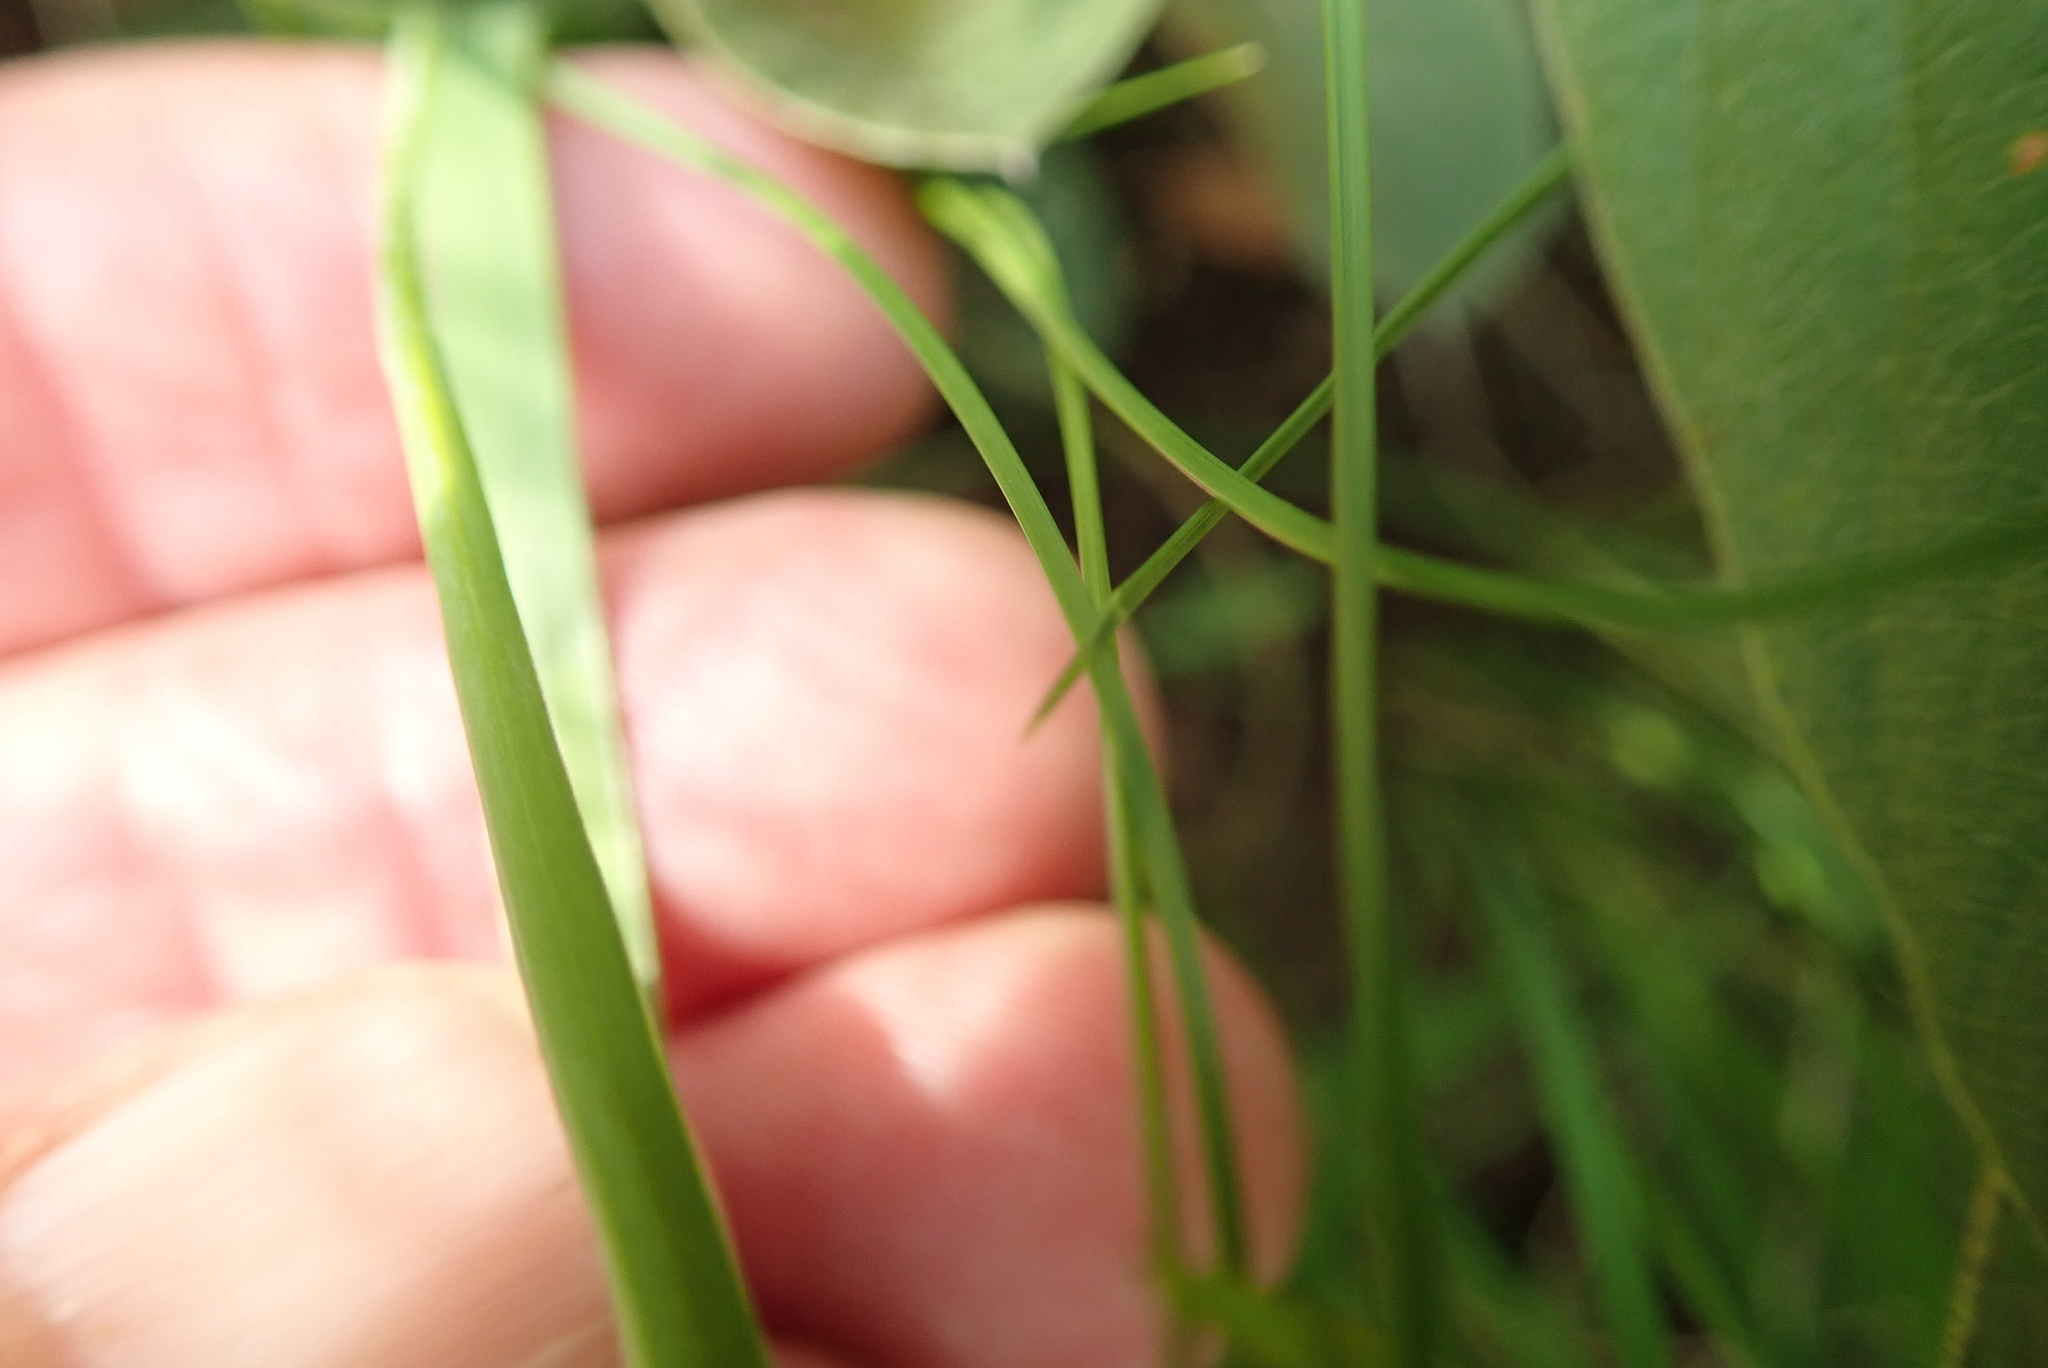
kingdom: Plantae
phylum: Tracheophyta
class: Liliopsida
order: Asparagales
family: Iridaceae
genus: Hesperantha
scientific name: Hesperantha baurii
